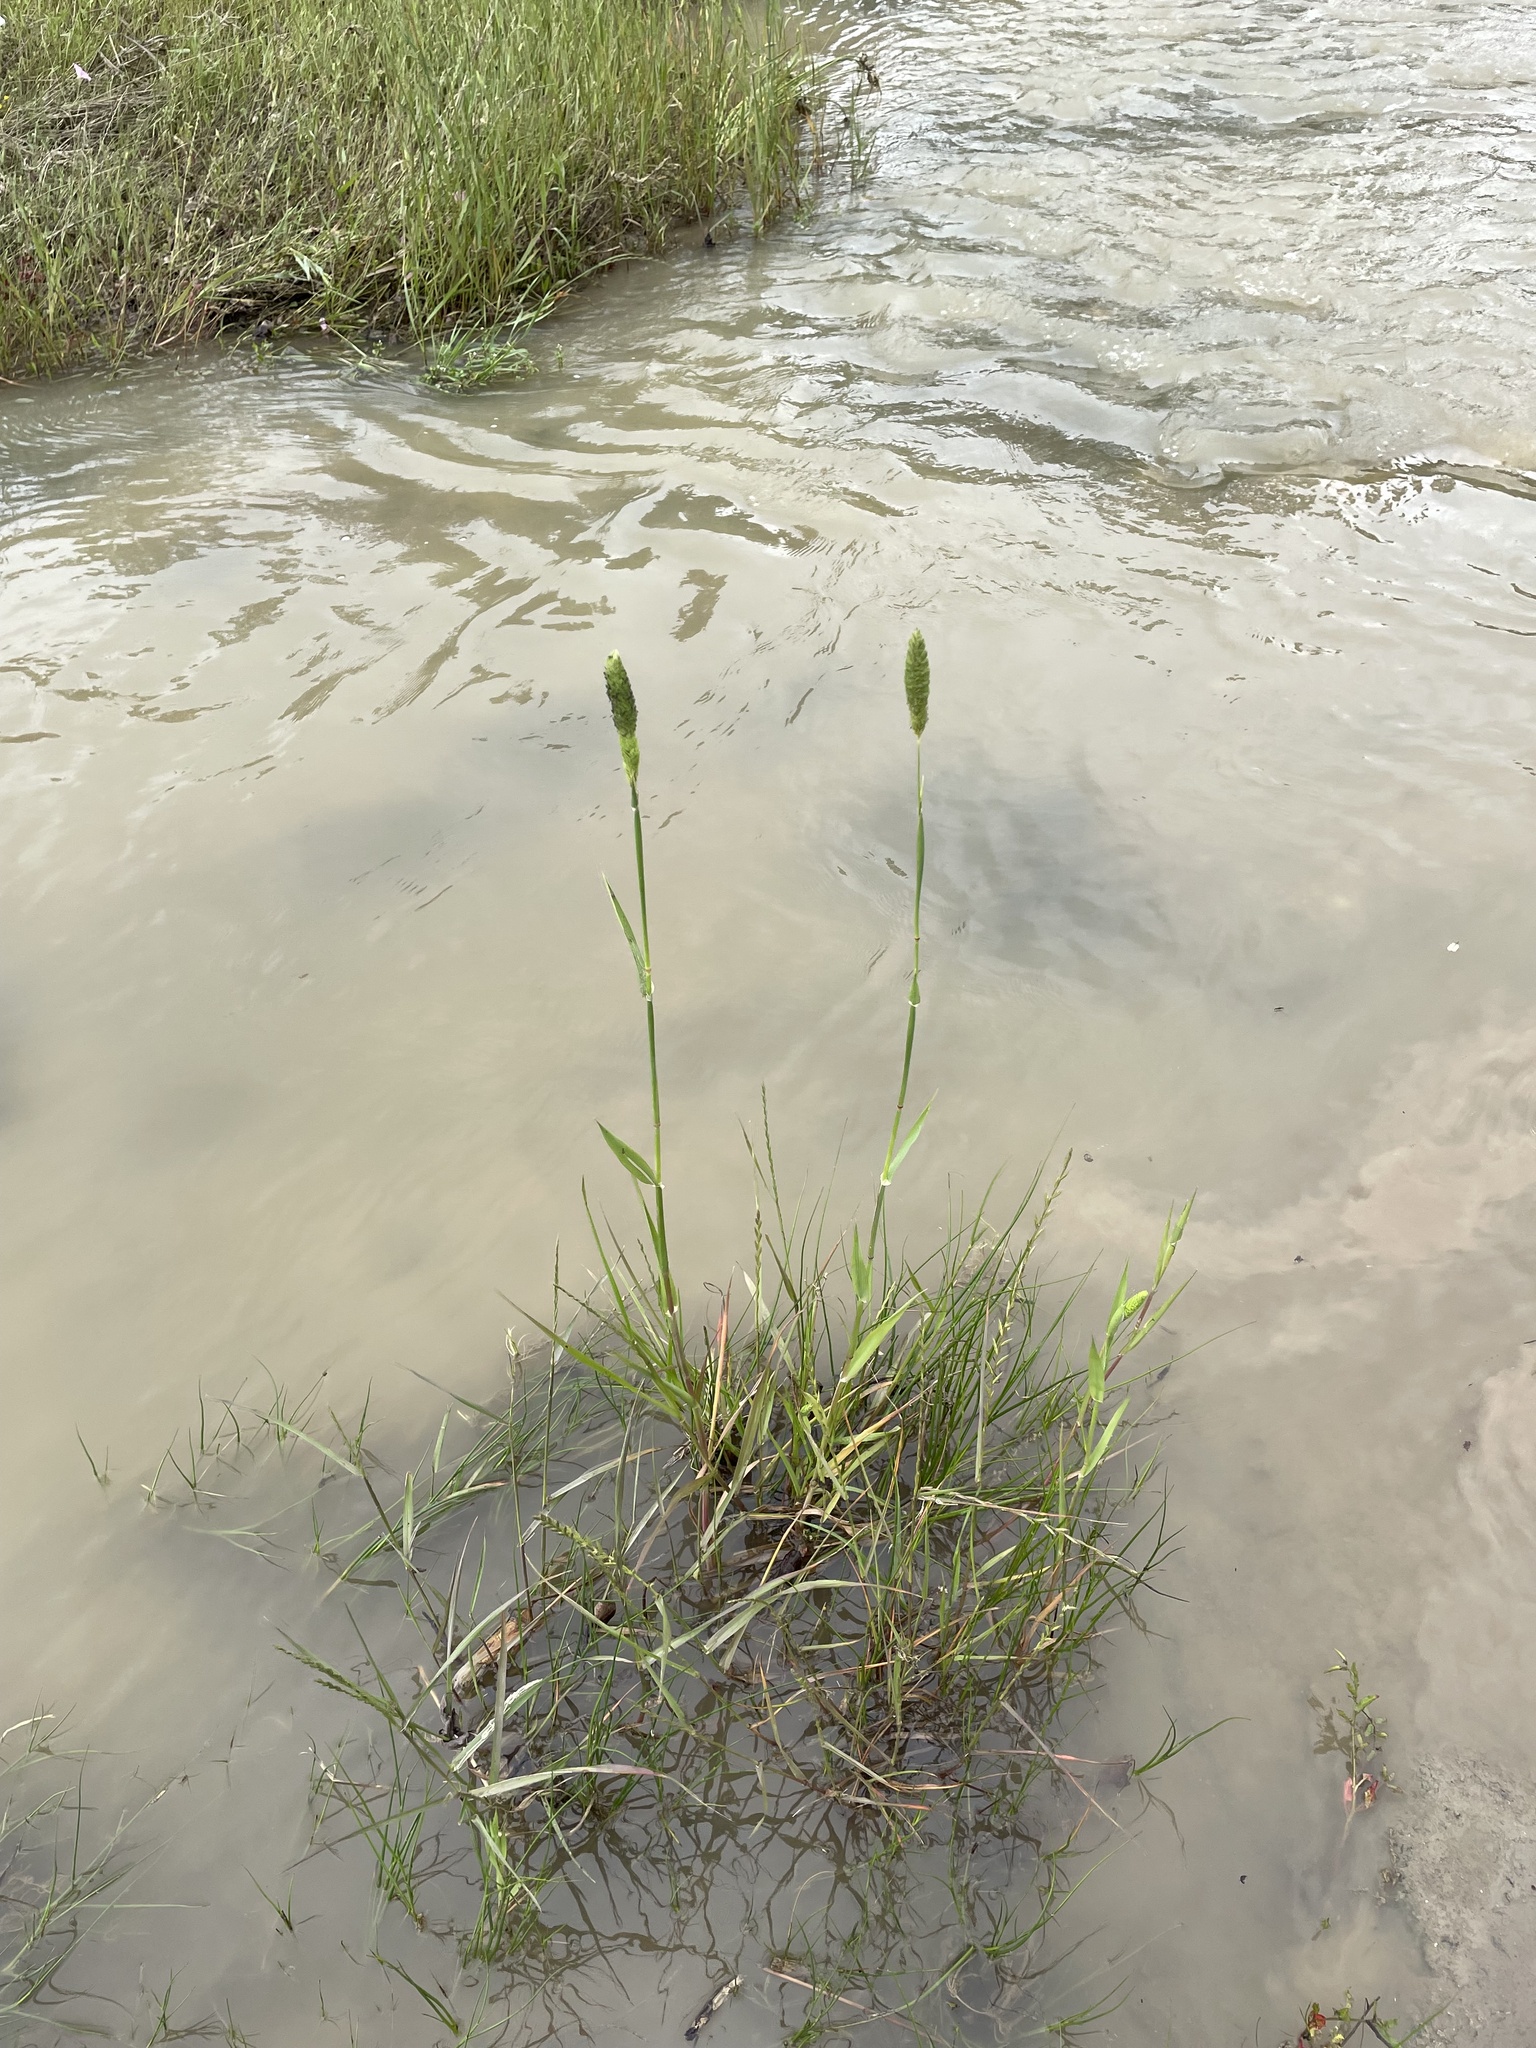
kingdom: Plantae
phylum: Tracheophyta
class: Liliopsida
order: Poales
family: Poaceae
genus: Phalaris
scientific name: Phalaris caroliniana
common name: May grass
